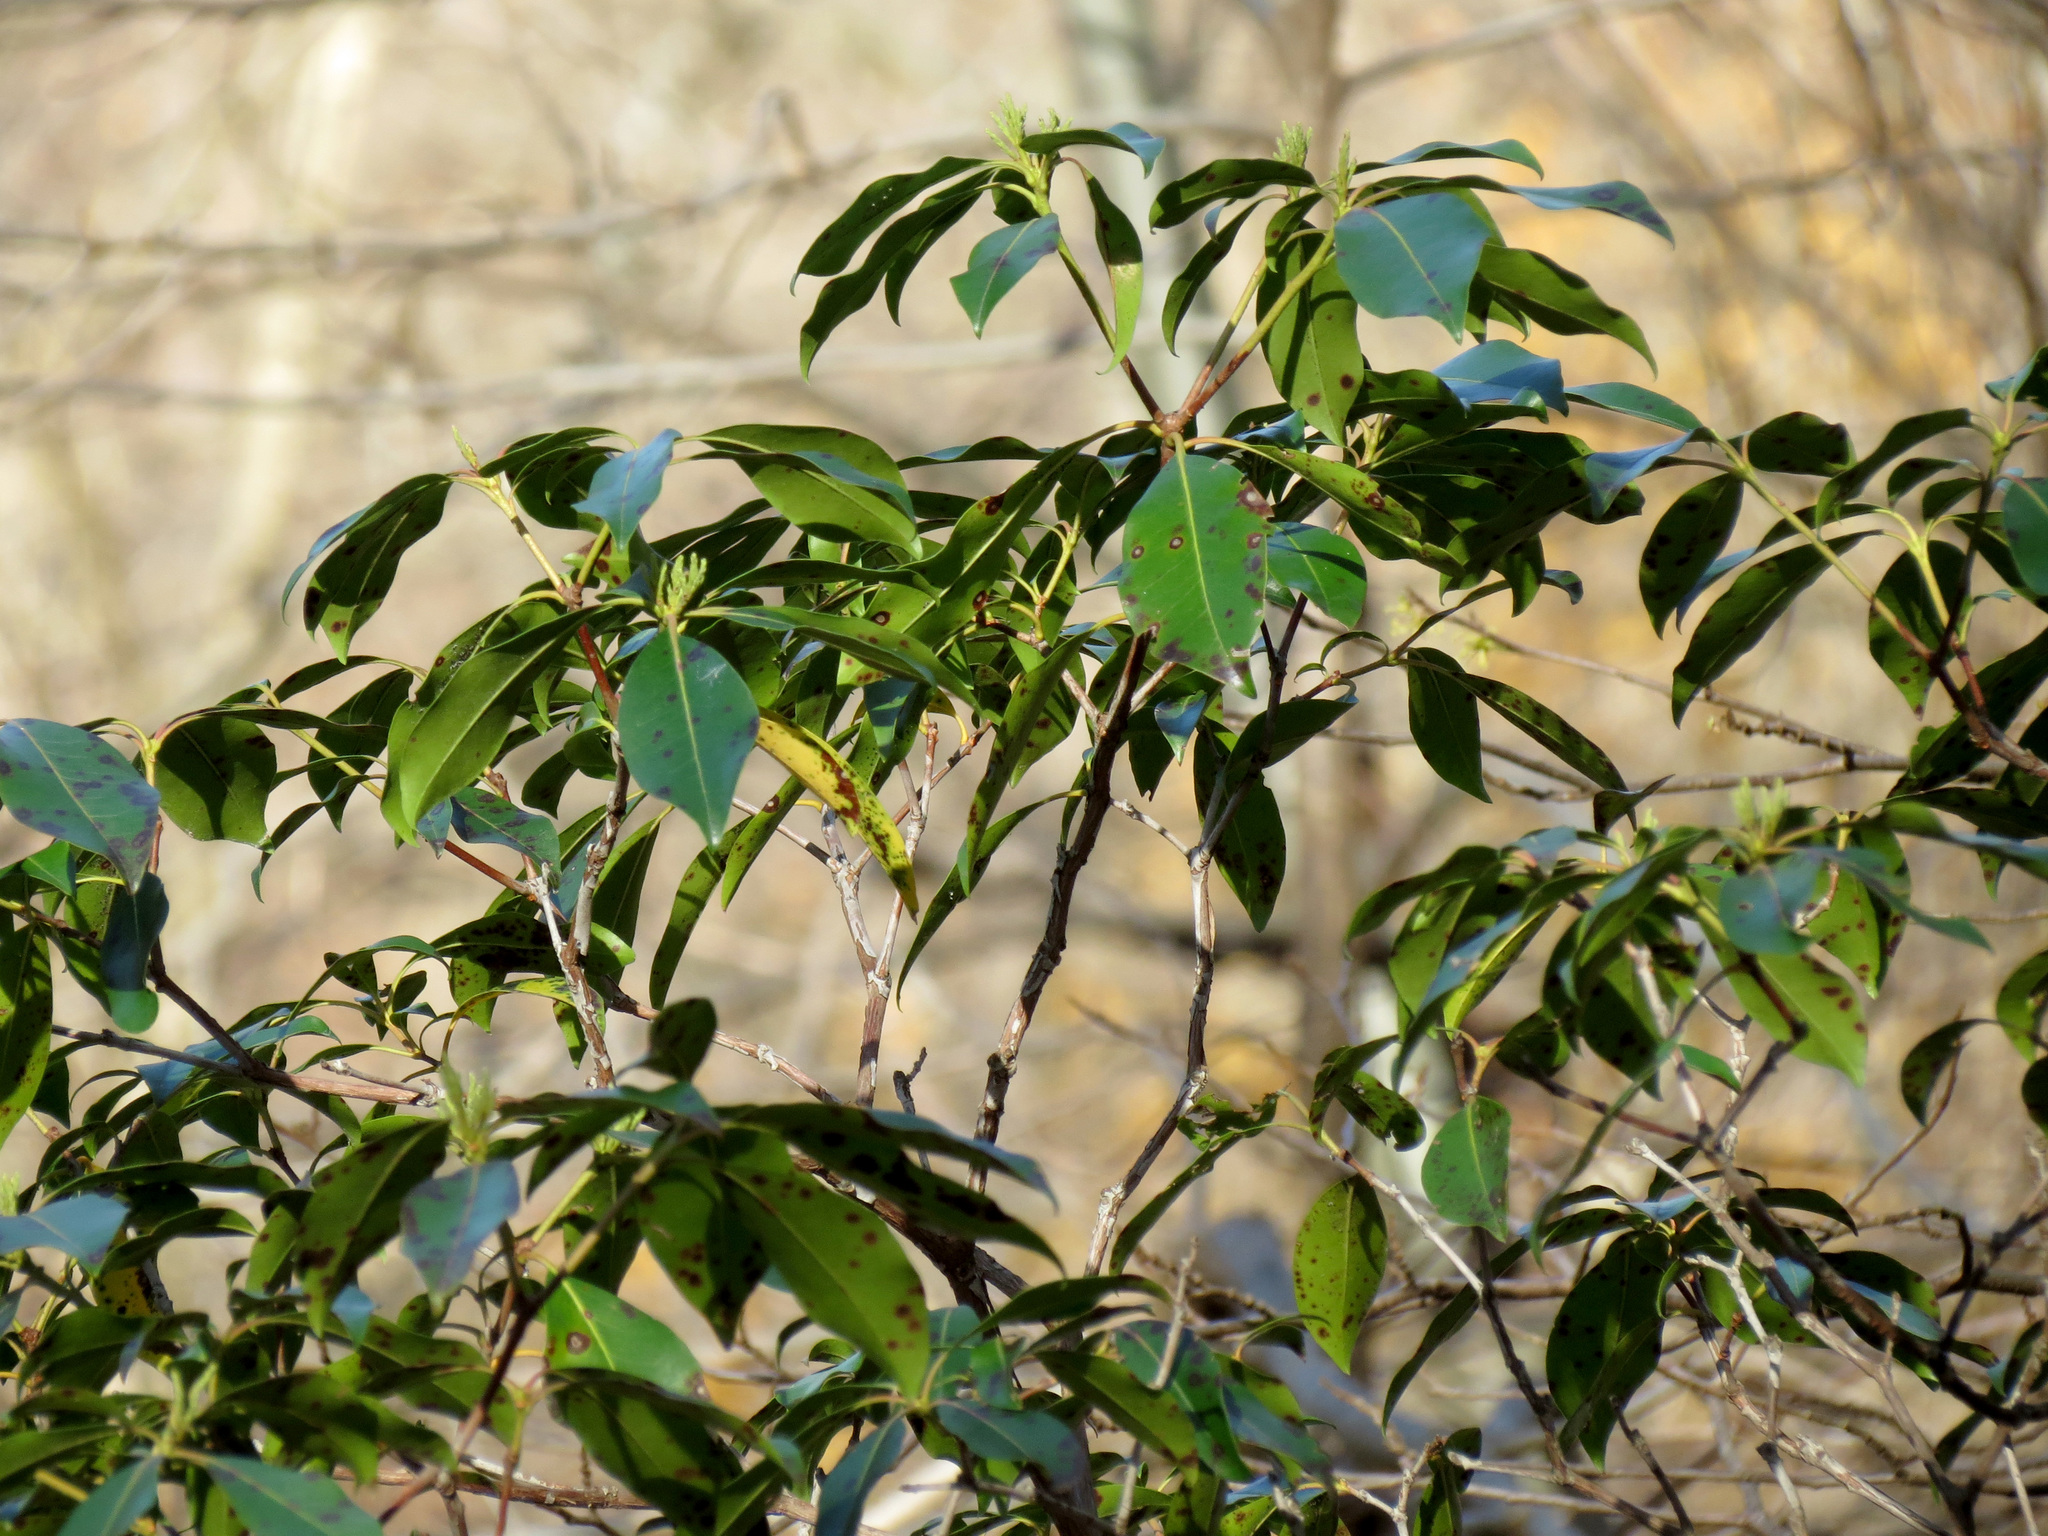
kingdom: Plantae
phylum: Tracheophyta
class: Magnoliopsida
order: Ericales
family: Ericaceae
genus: Kalmia
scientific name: Kalmia latifolia
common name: Mountain-laurel
